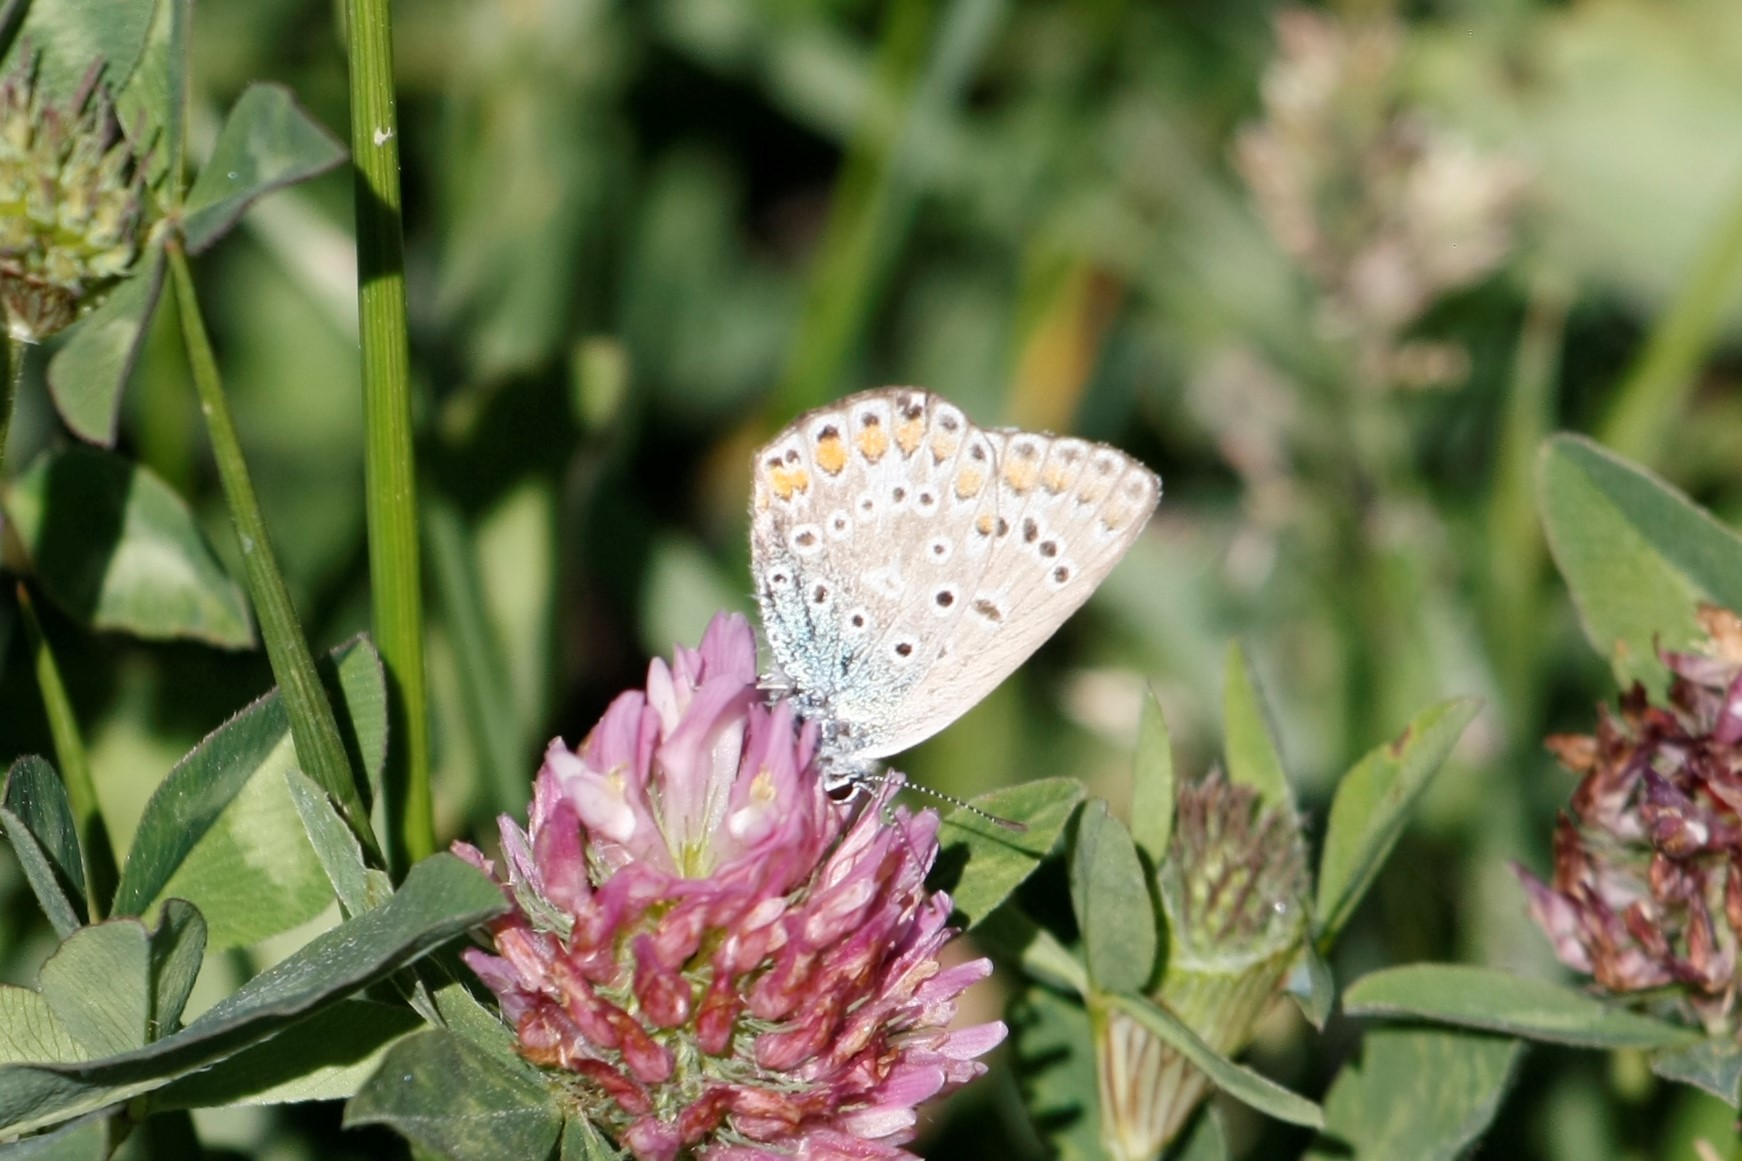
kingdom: Animalia
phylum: Arthropoda
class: Insecta
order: Lepidoptera
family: Lycaenidae
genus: Polyommatus
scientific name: Polyommatus icarus
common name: Common blue
